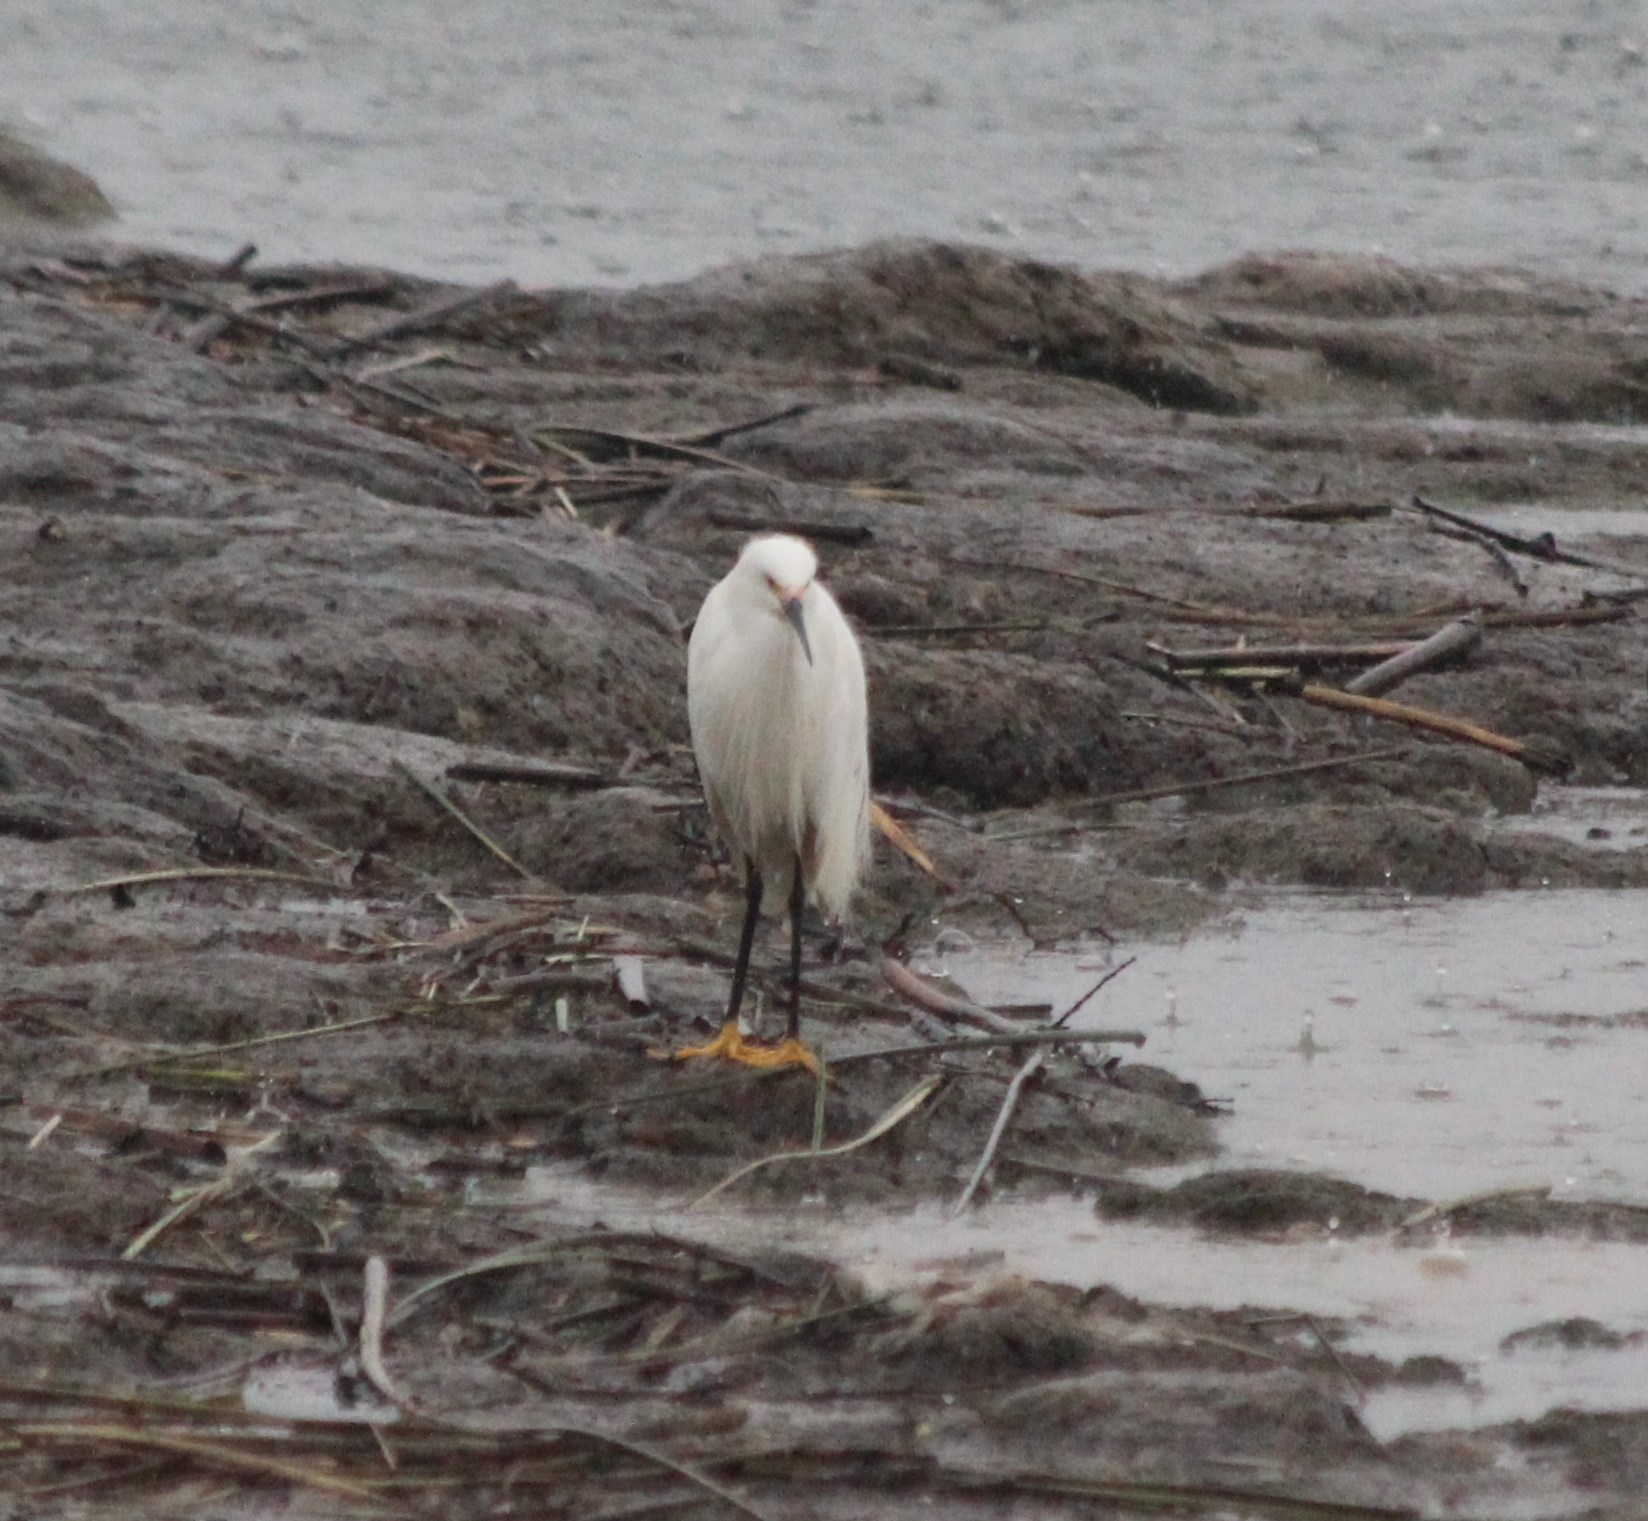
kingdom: Animalia
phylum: Chordata
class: Aves
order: Pelecaniformes
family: Ardeidae
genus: Egretta
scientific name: Egretta thula
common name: Snowy egret
